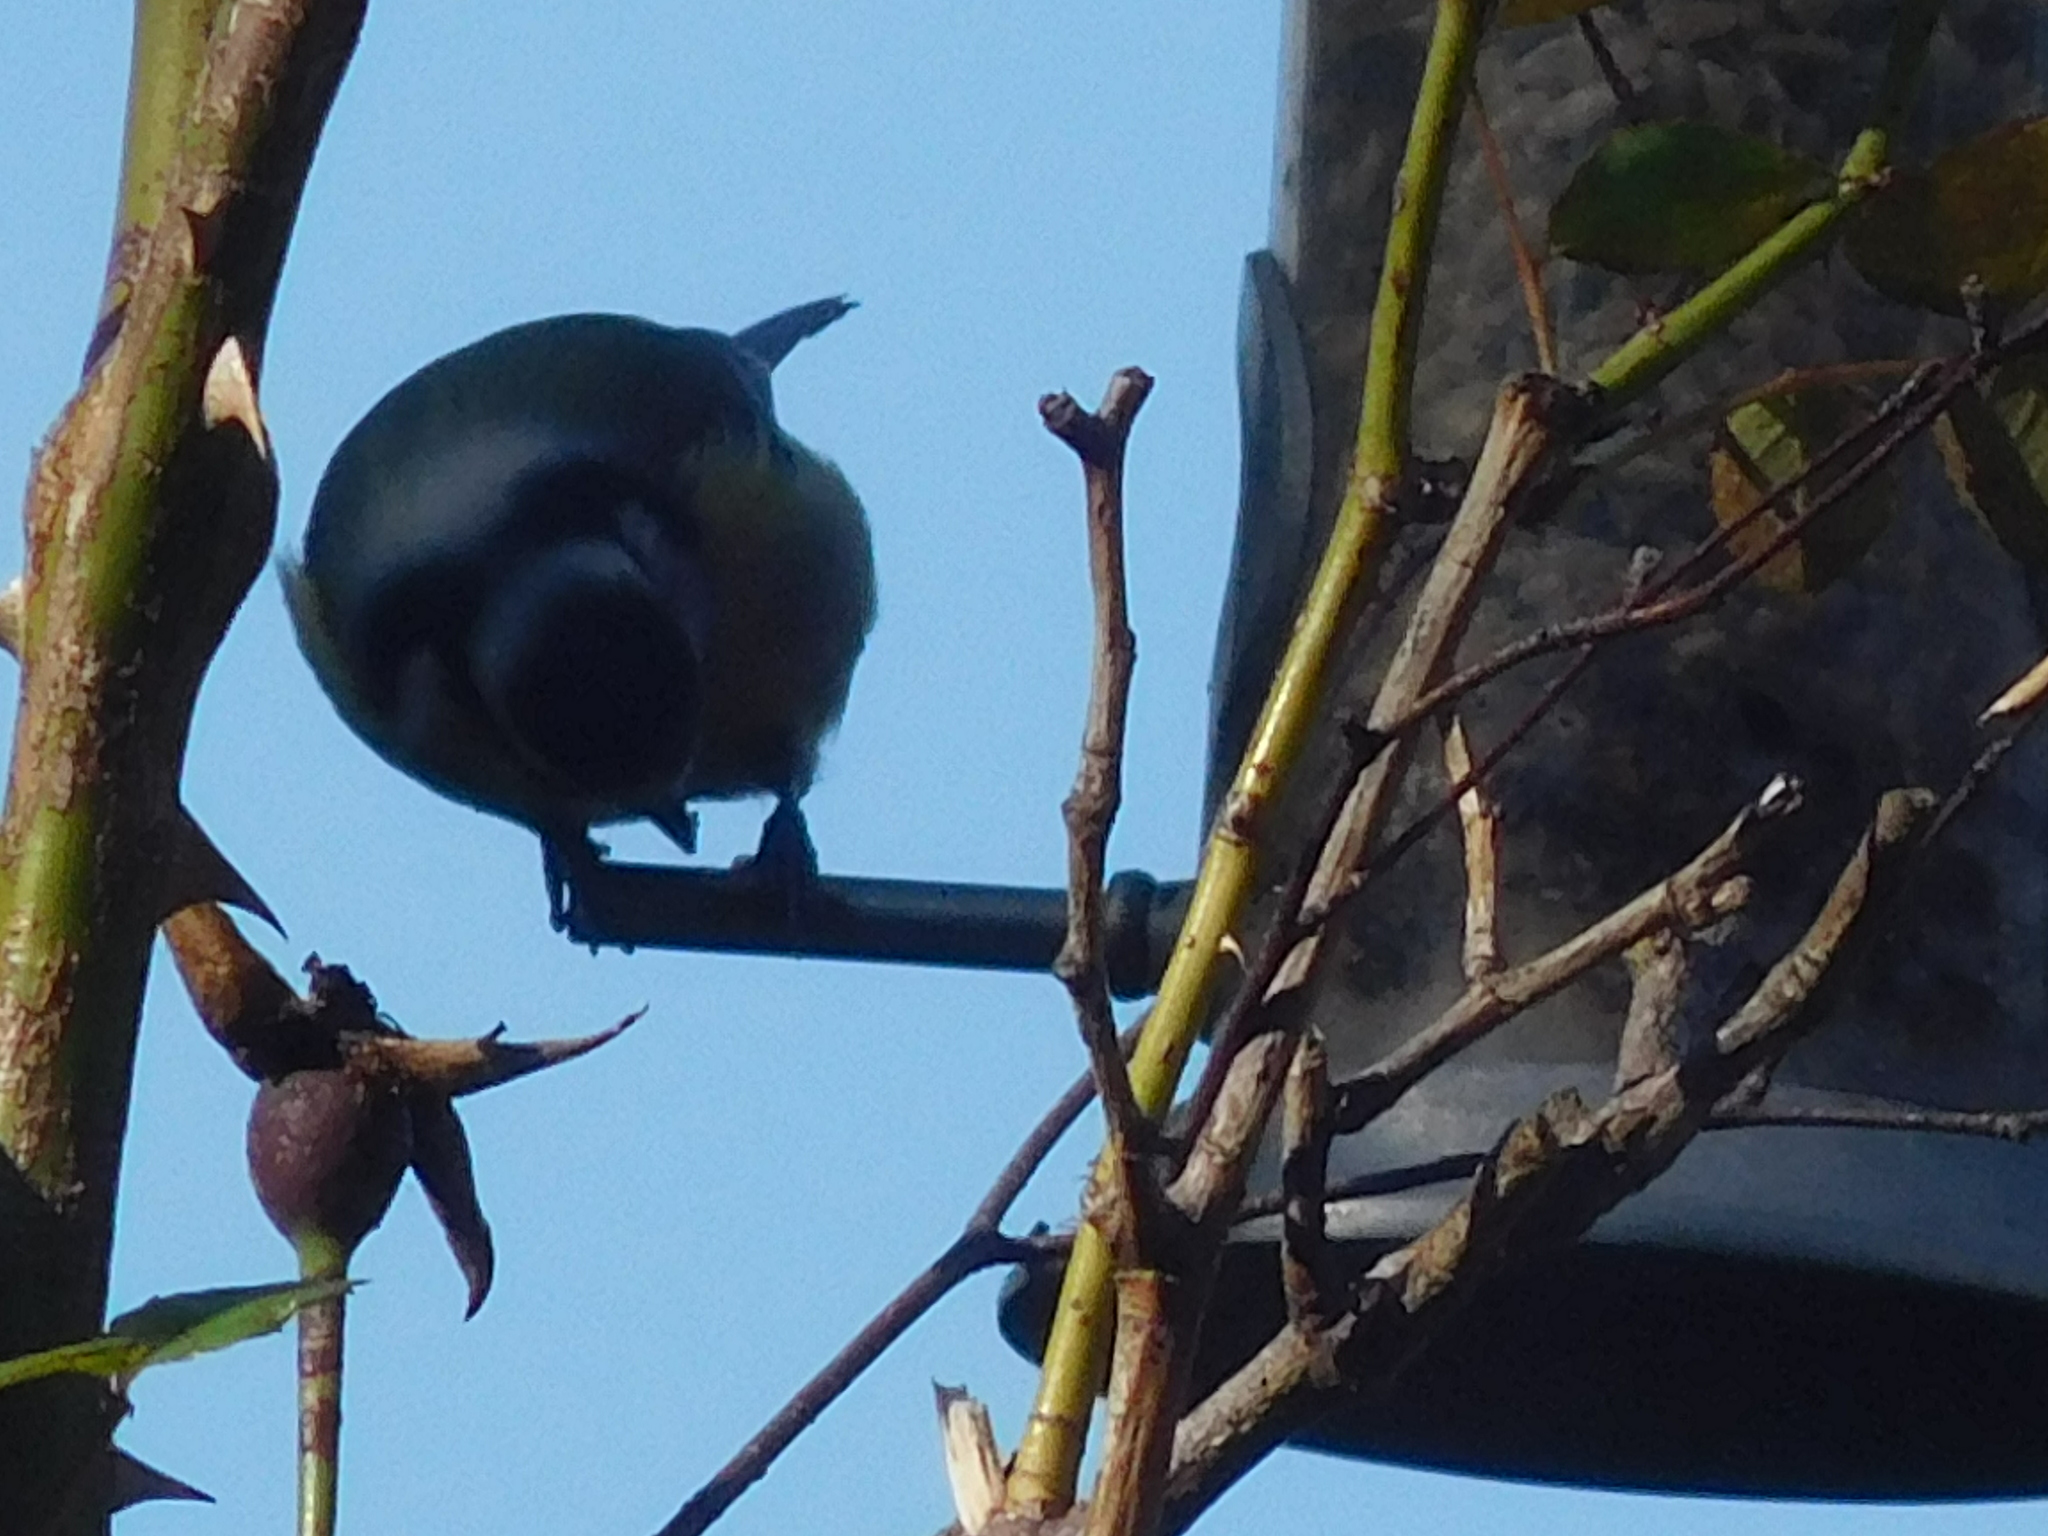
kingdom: Animalia
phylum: Chordata
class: Aves
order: Passeriformes
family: Paridae
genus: Cyanistes
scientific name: Cyanistes caeruleus
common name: Eurasian blue tit
